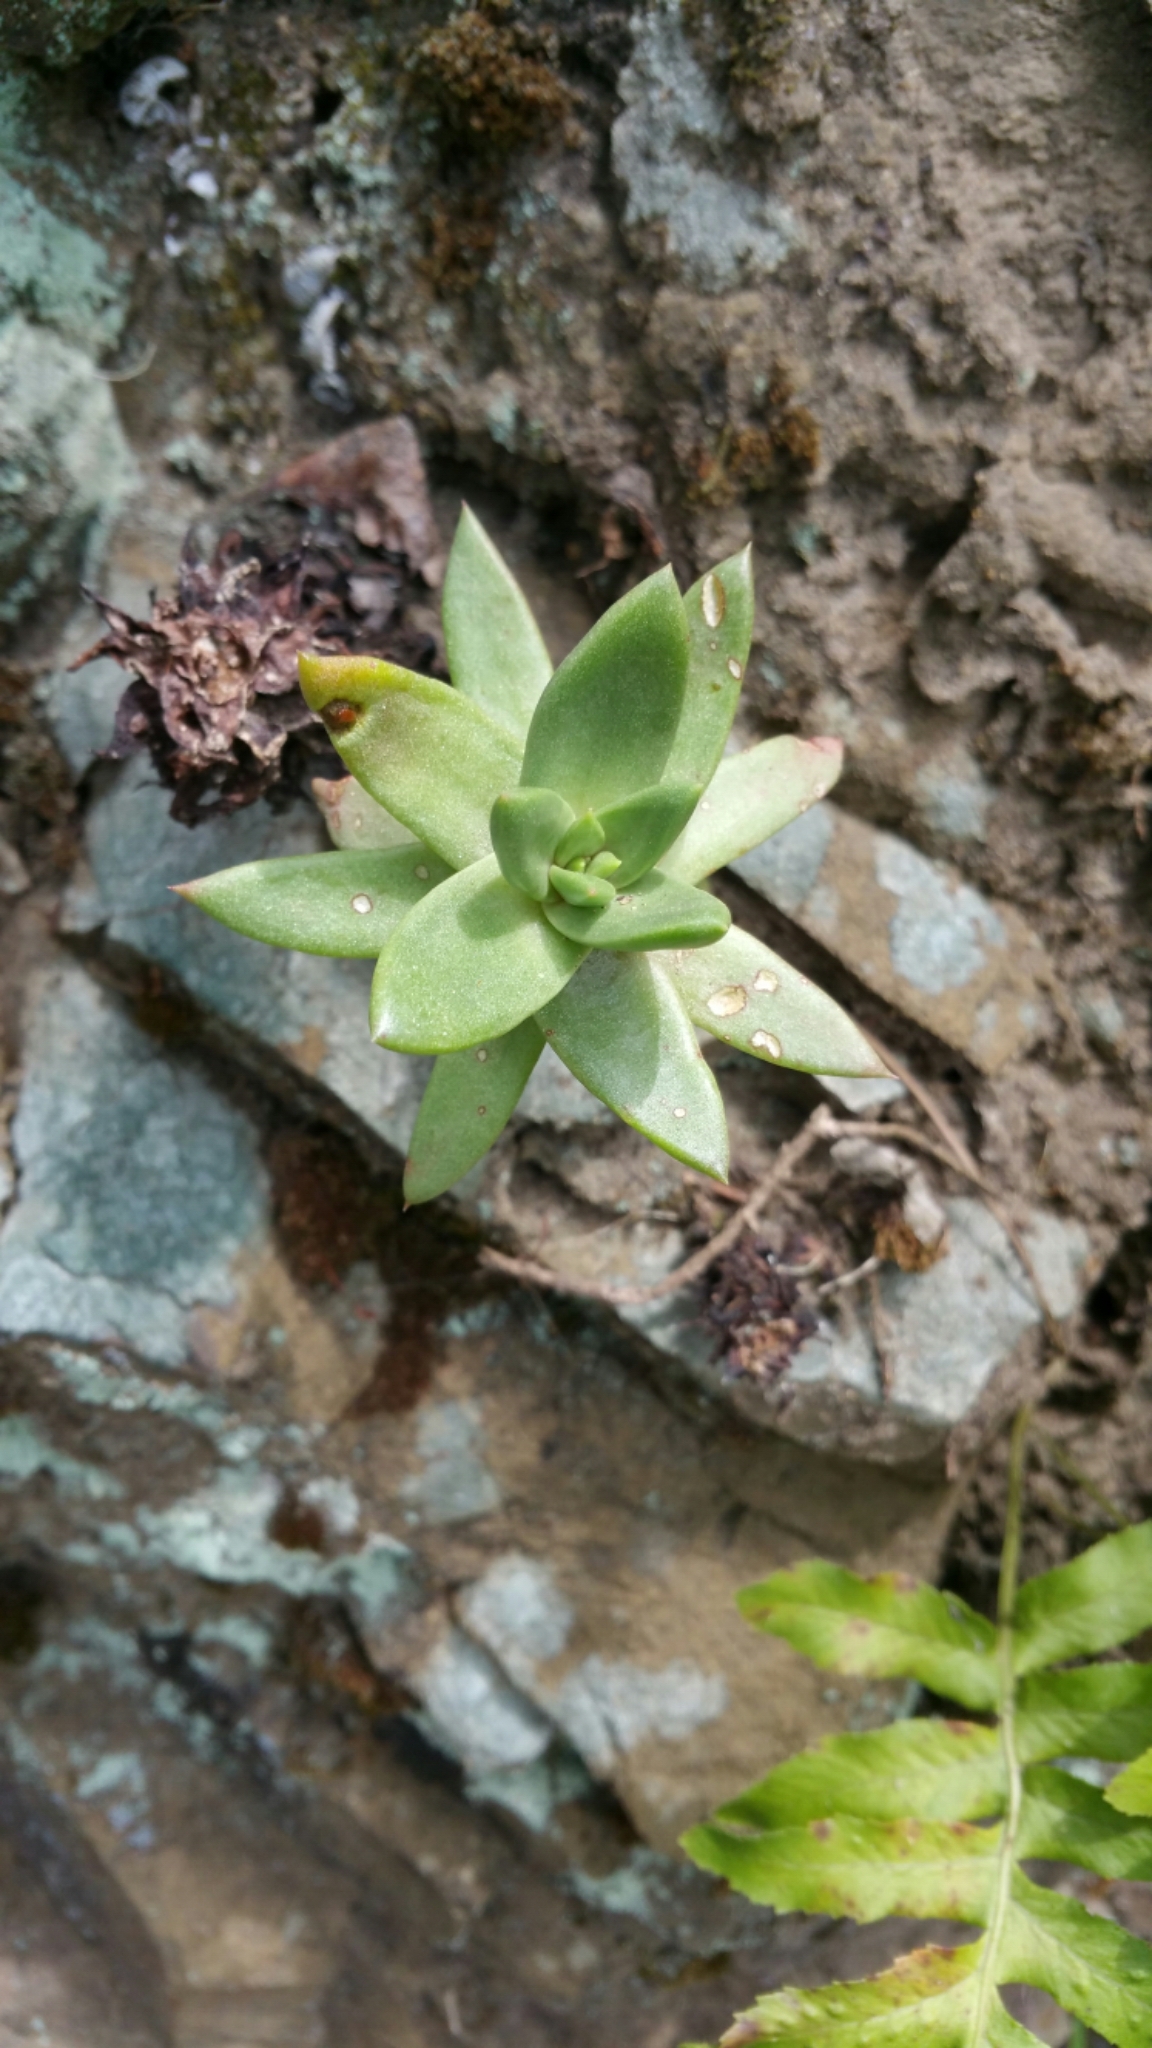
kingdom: Plantae
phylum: Tracheophyta
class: Magnoliopsida
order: Saxifragales
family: Crassulaceae
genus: Dudleya
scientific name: Dudleya farinosa
